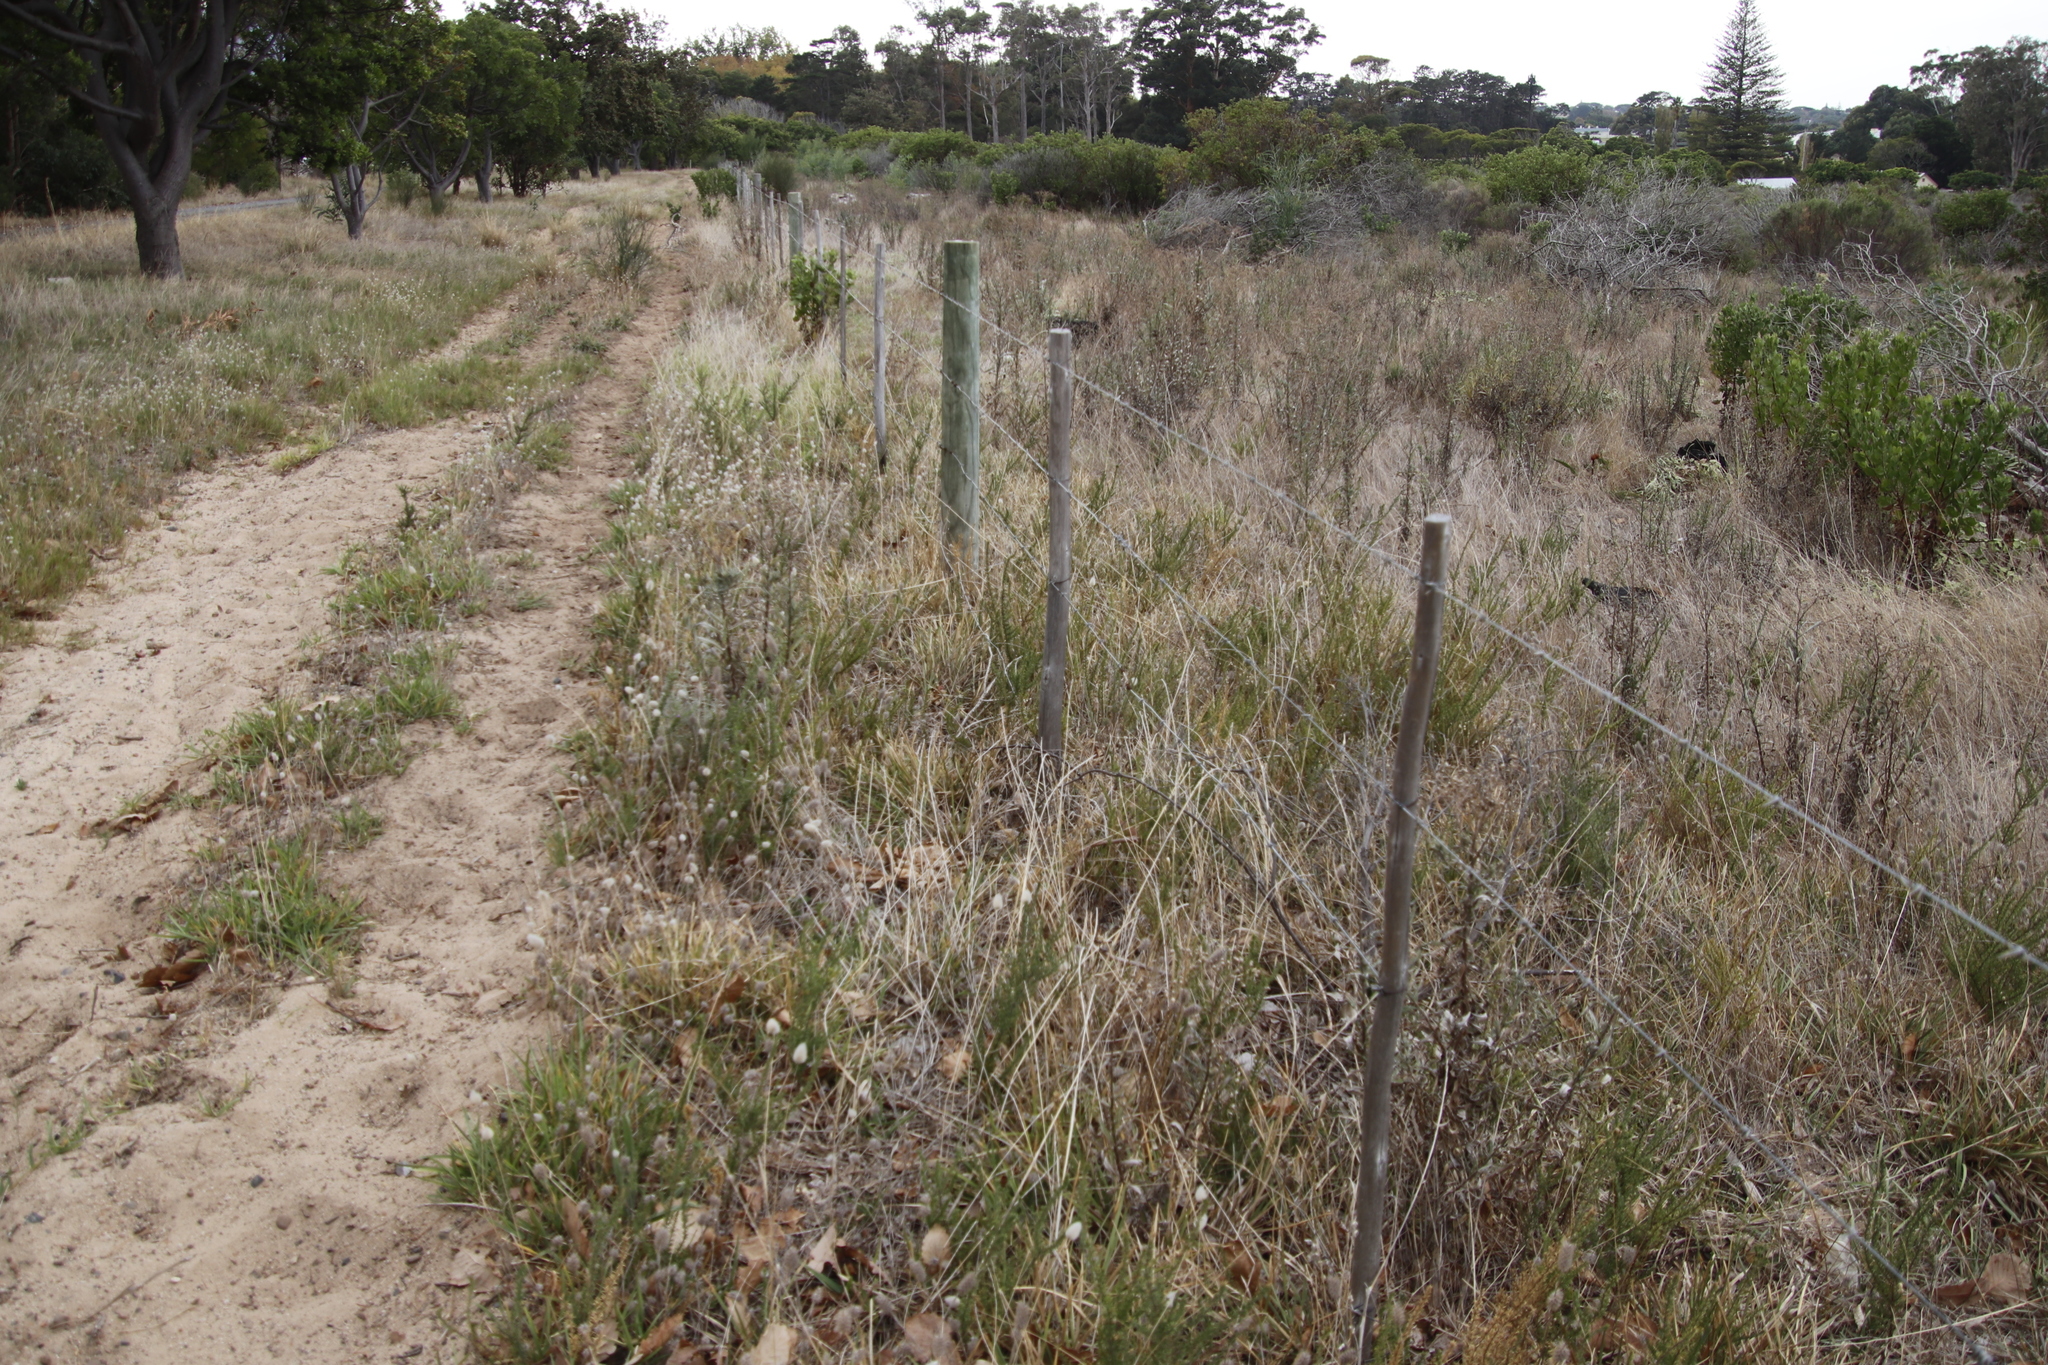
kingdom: Plantae
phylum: Tracheophyta
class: Liliopsida
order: Poales
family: Poaceae
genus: Lagurus
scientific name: Lagurus ovatus
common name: Hare's-tail
